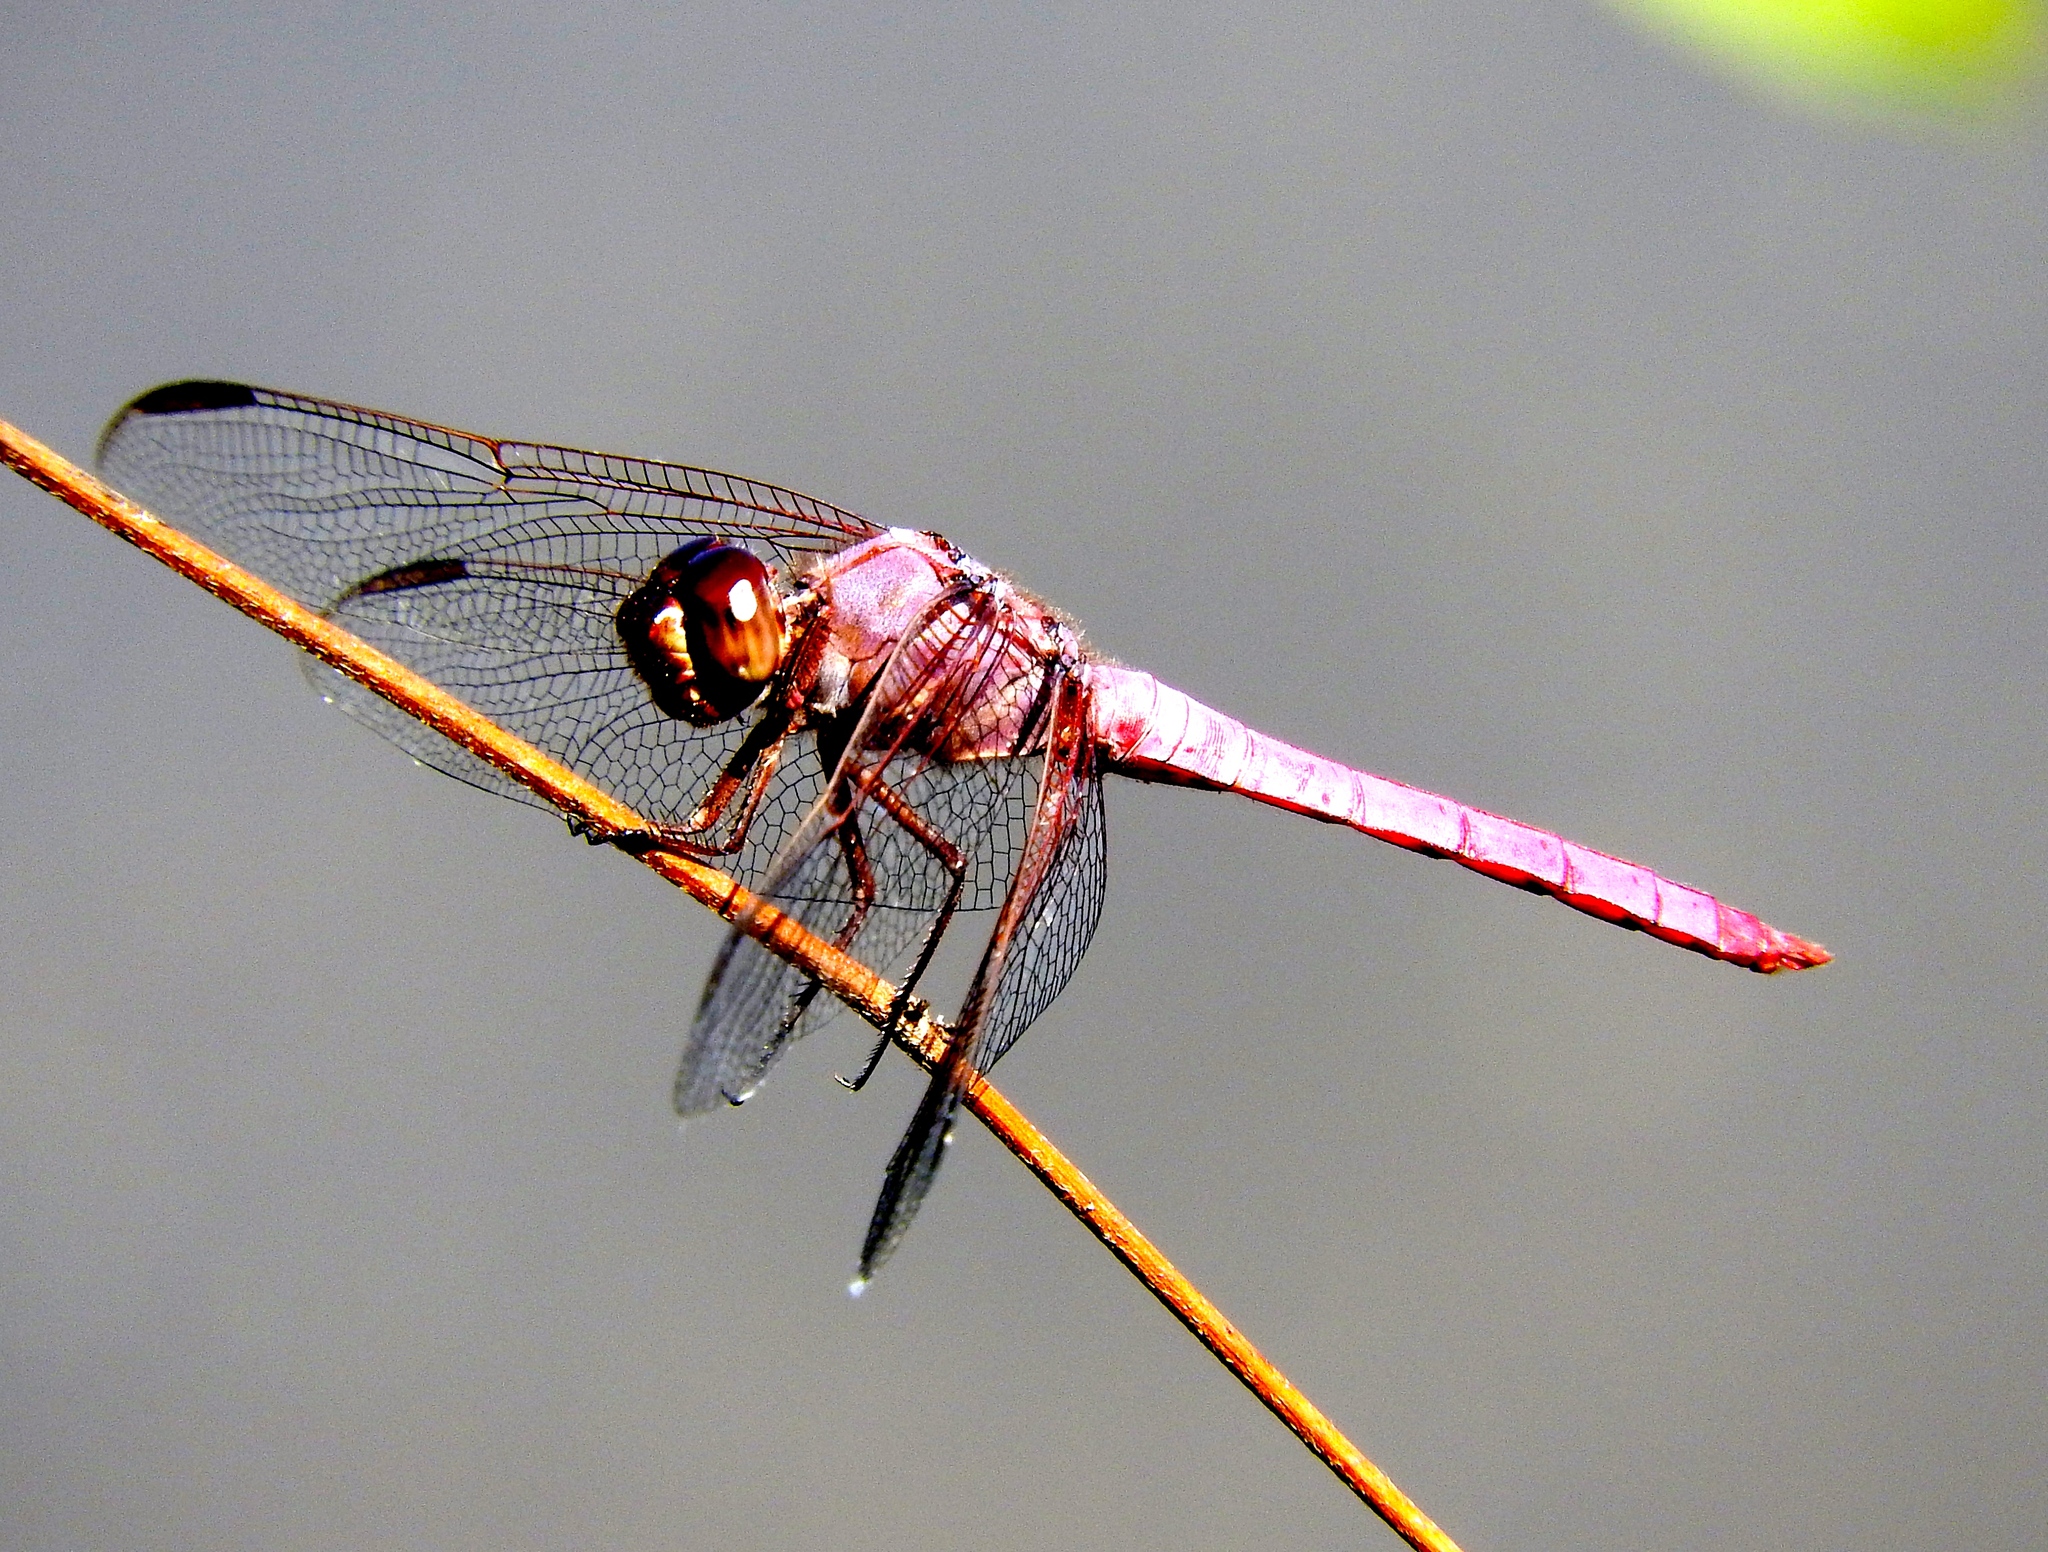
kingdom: Animalia
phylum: Arthropoda
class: Insecta
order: Odonata
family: Libellulidae
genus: Orthemis
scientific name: Orthemis
